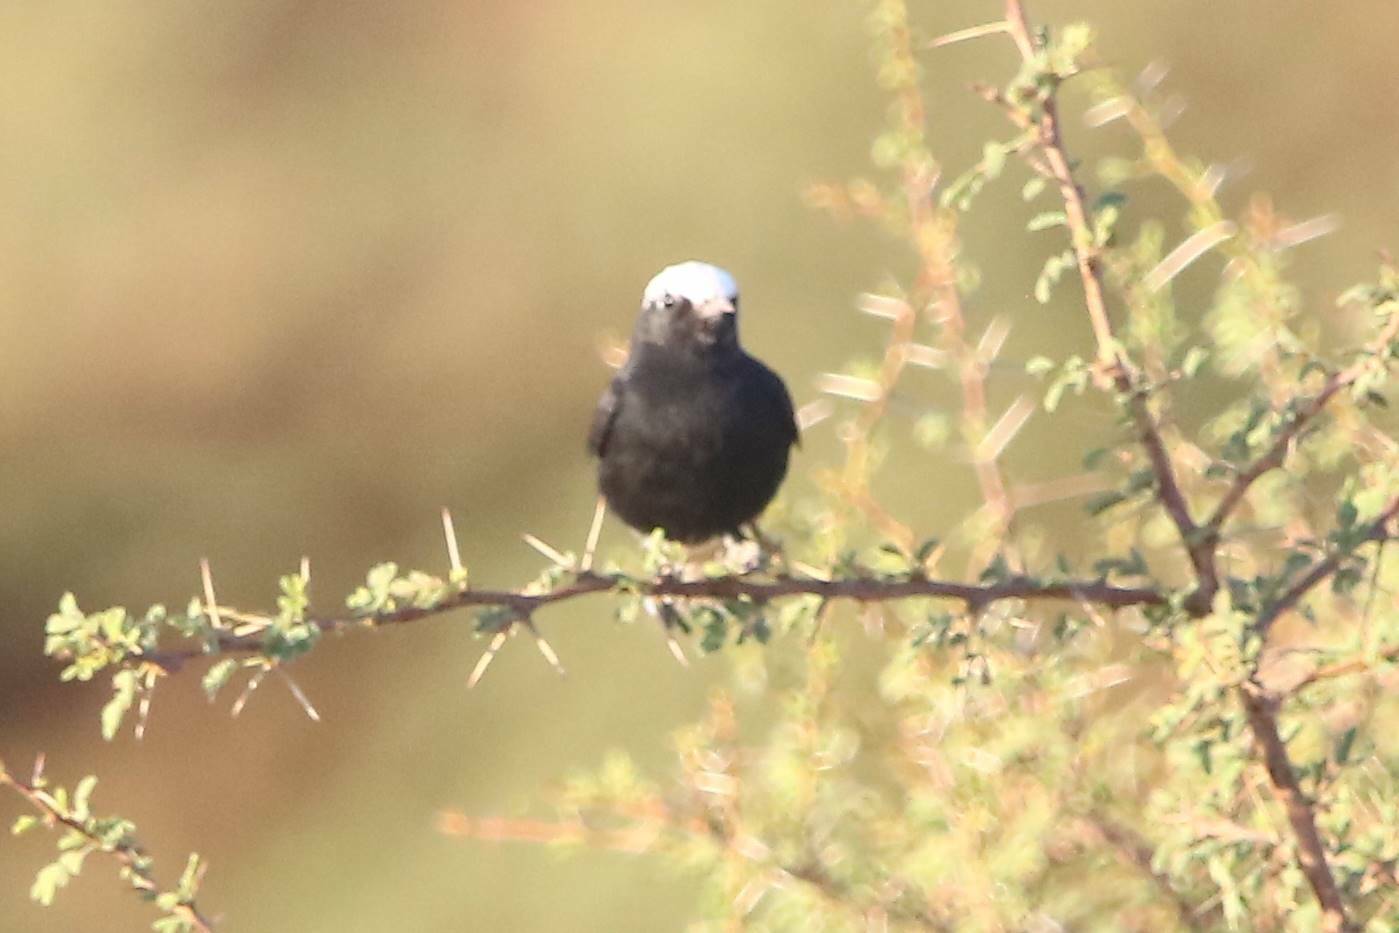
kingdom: Animalia
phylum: Chordata
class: Aves
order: Passeriformes
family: Muscicapidae
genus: Oenanthe
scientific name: Oenanthe leucopyga
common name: White-crowned wheatear
